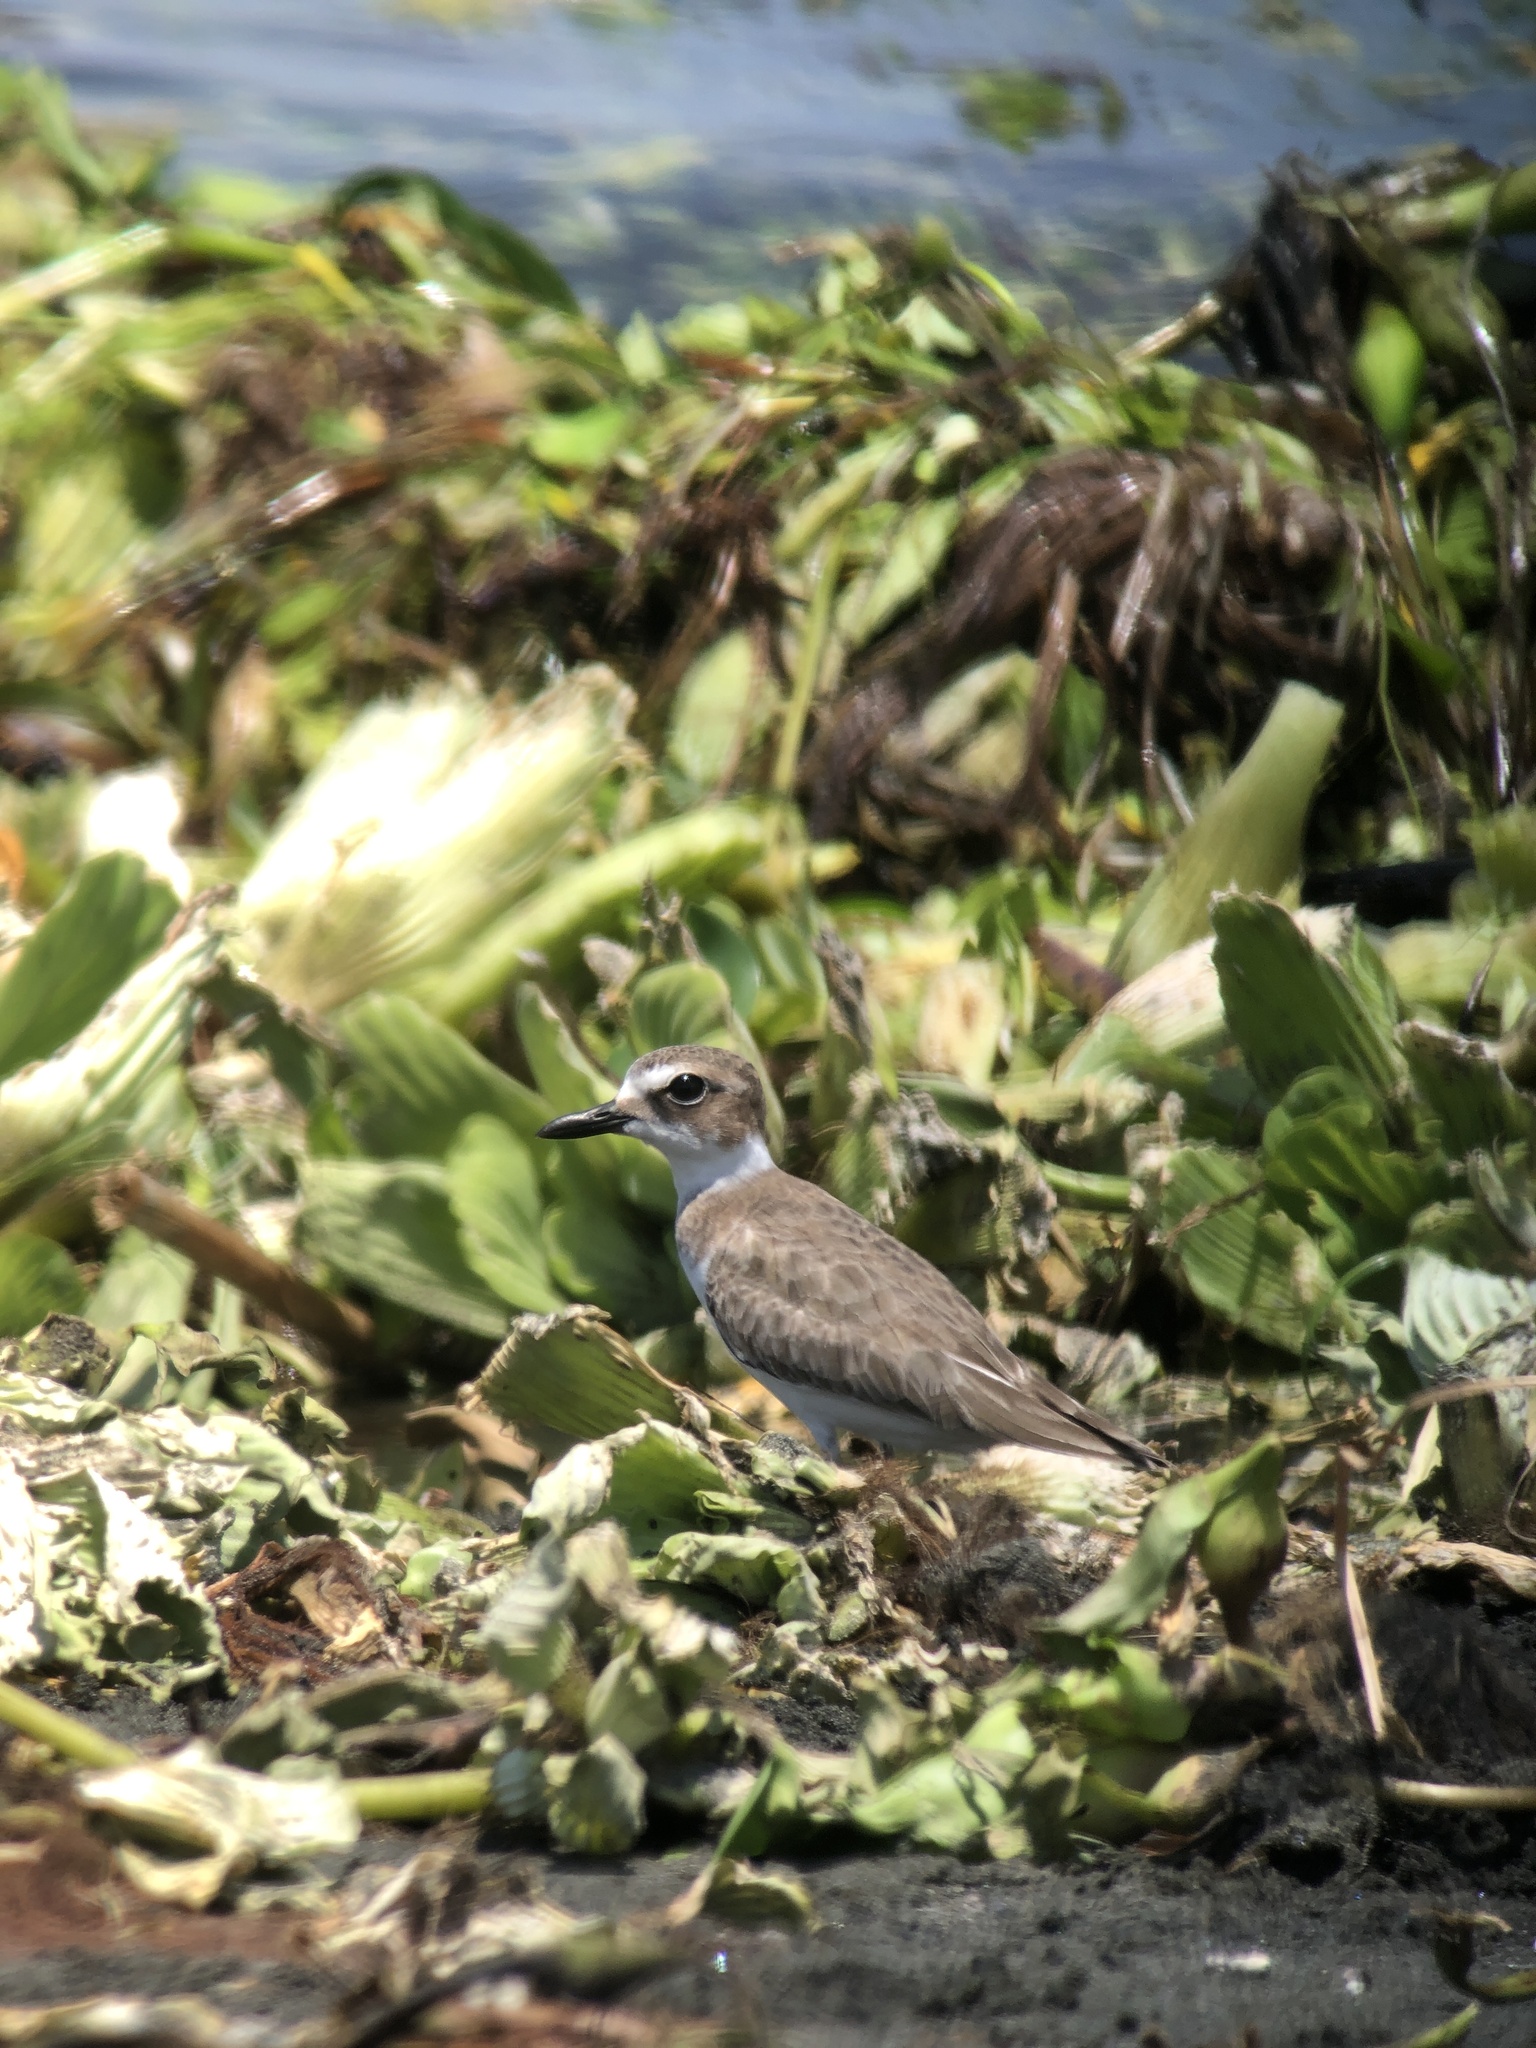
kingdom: Animalia
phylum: Chordata
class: Aves
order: Charadriiformes
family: Charadriidae
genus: Anarhynchus
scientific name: Anarhynchus
